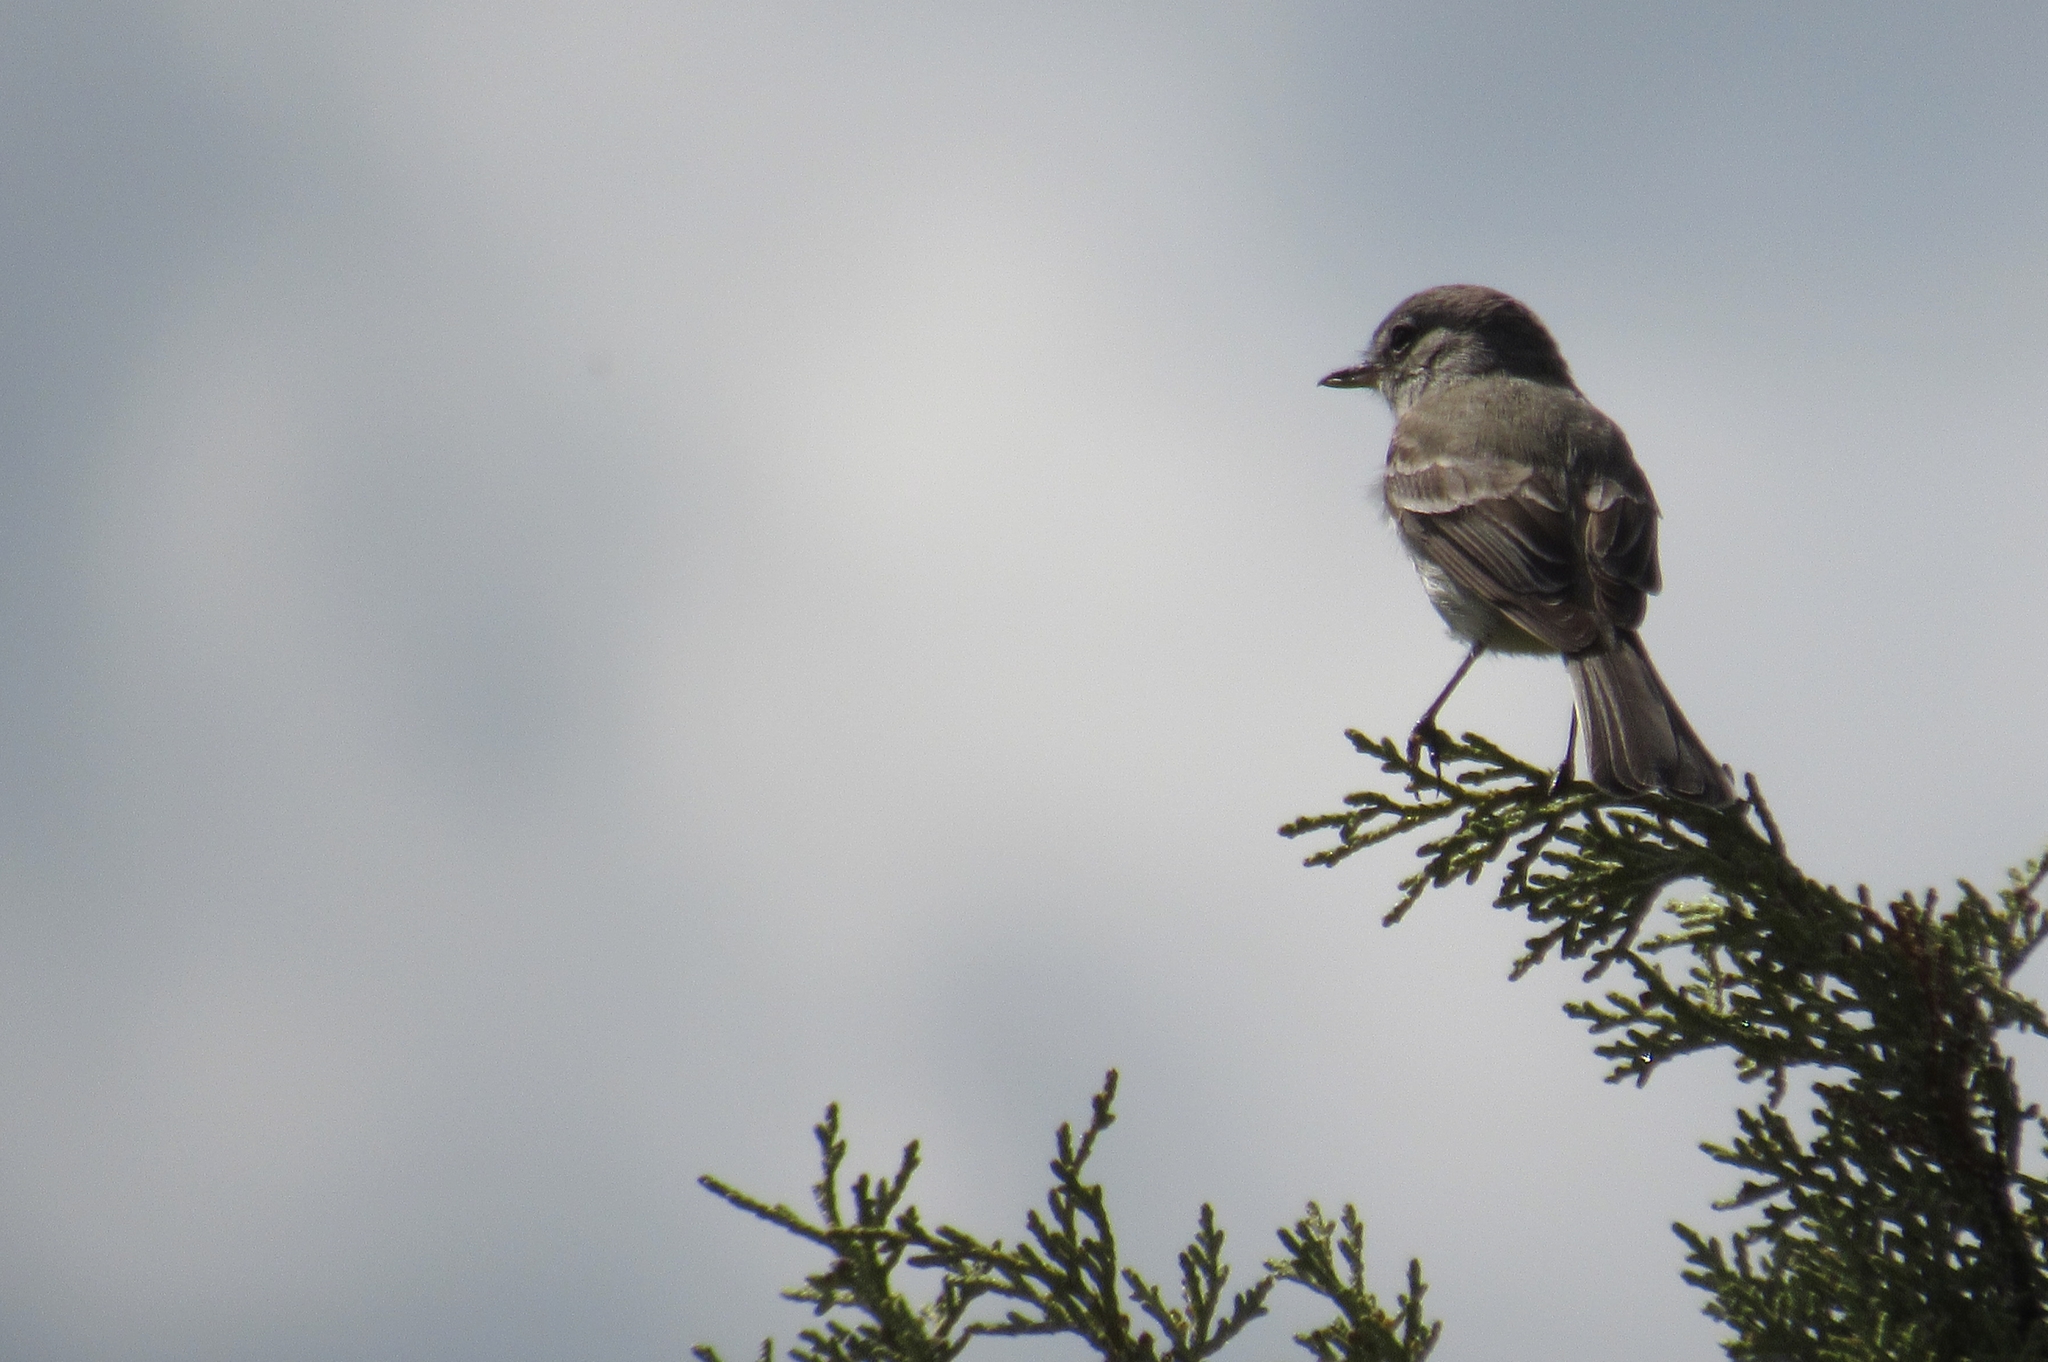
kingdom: Animalia
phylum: Chordata
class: Aves
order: Passeriformes
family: Tyrannidae
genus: Empidonax
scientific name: Empidonax wrightii
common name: Gray flycatcher
